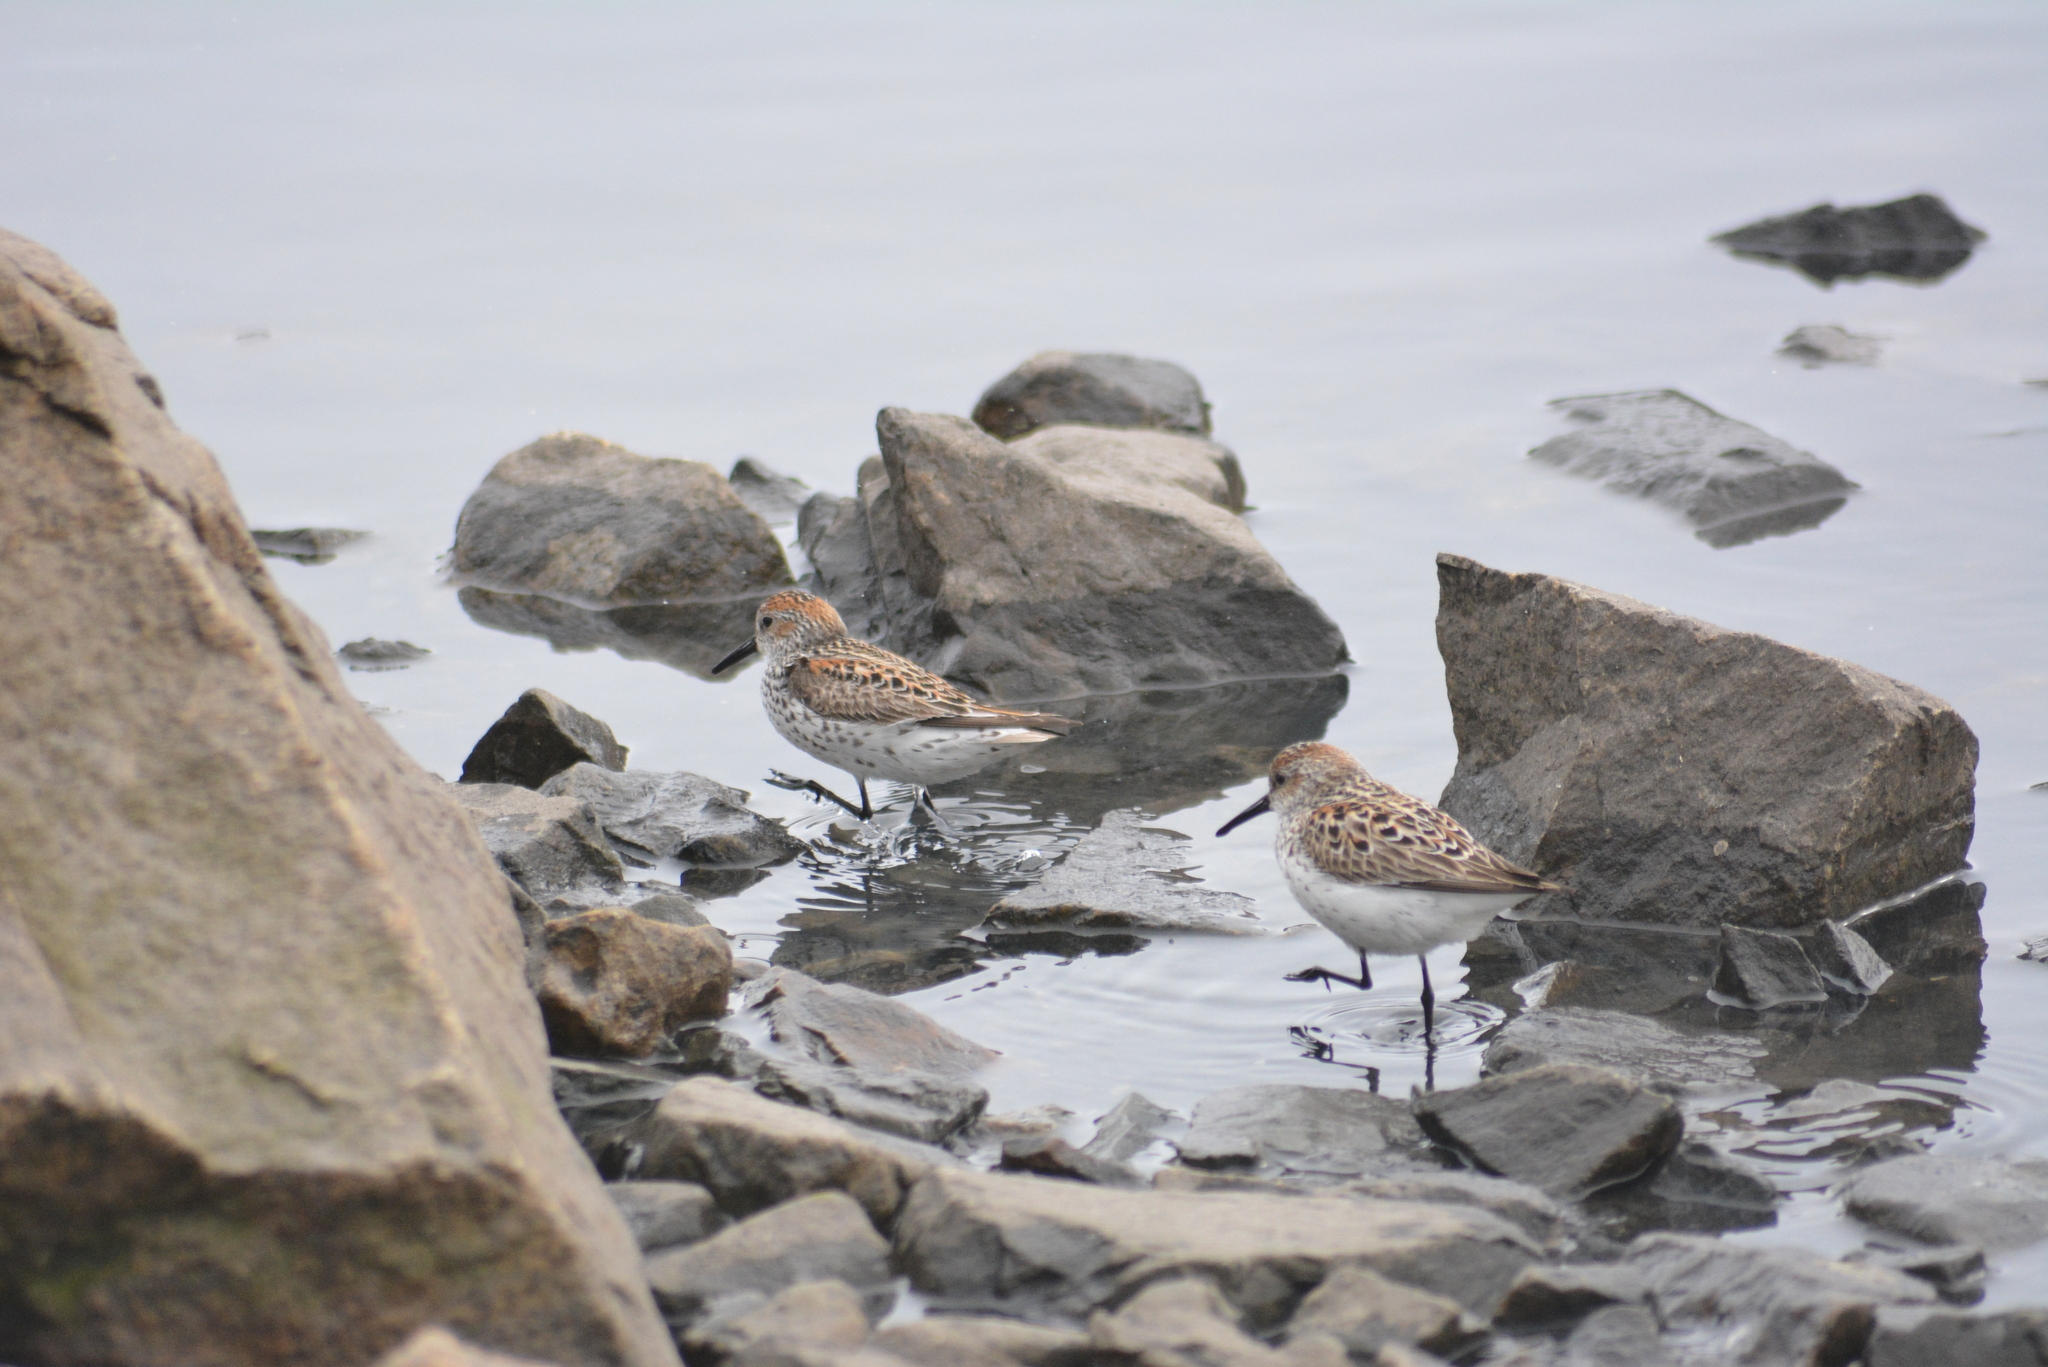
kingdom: Animalia
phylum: Chordata
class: Aves
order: Charadriiformes
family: Scolopacidae
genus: Calidris
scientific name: Calidris mauri
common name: Western sandpiper
